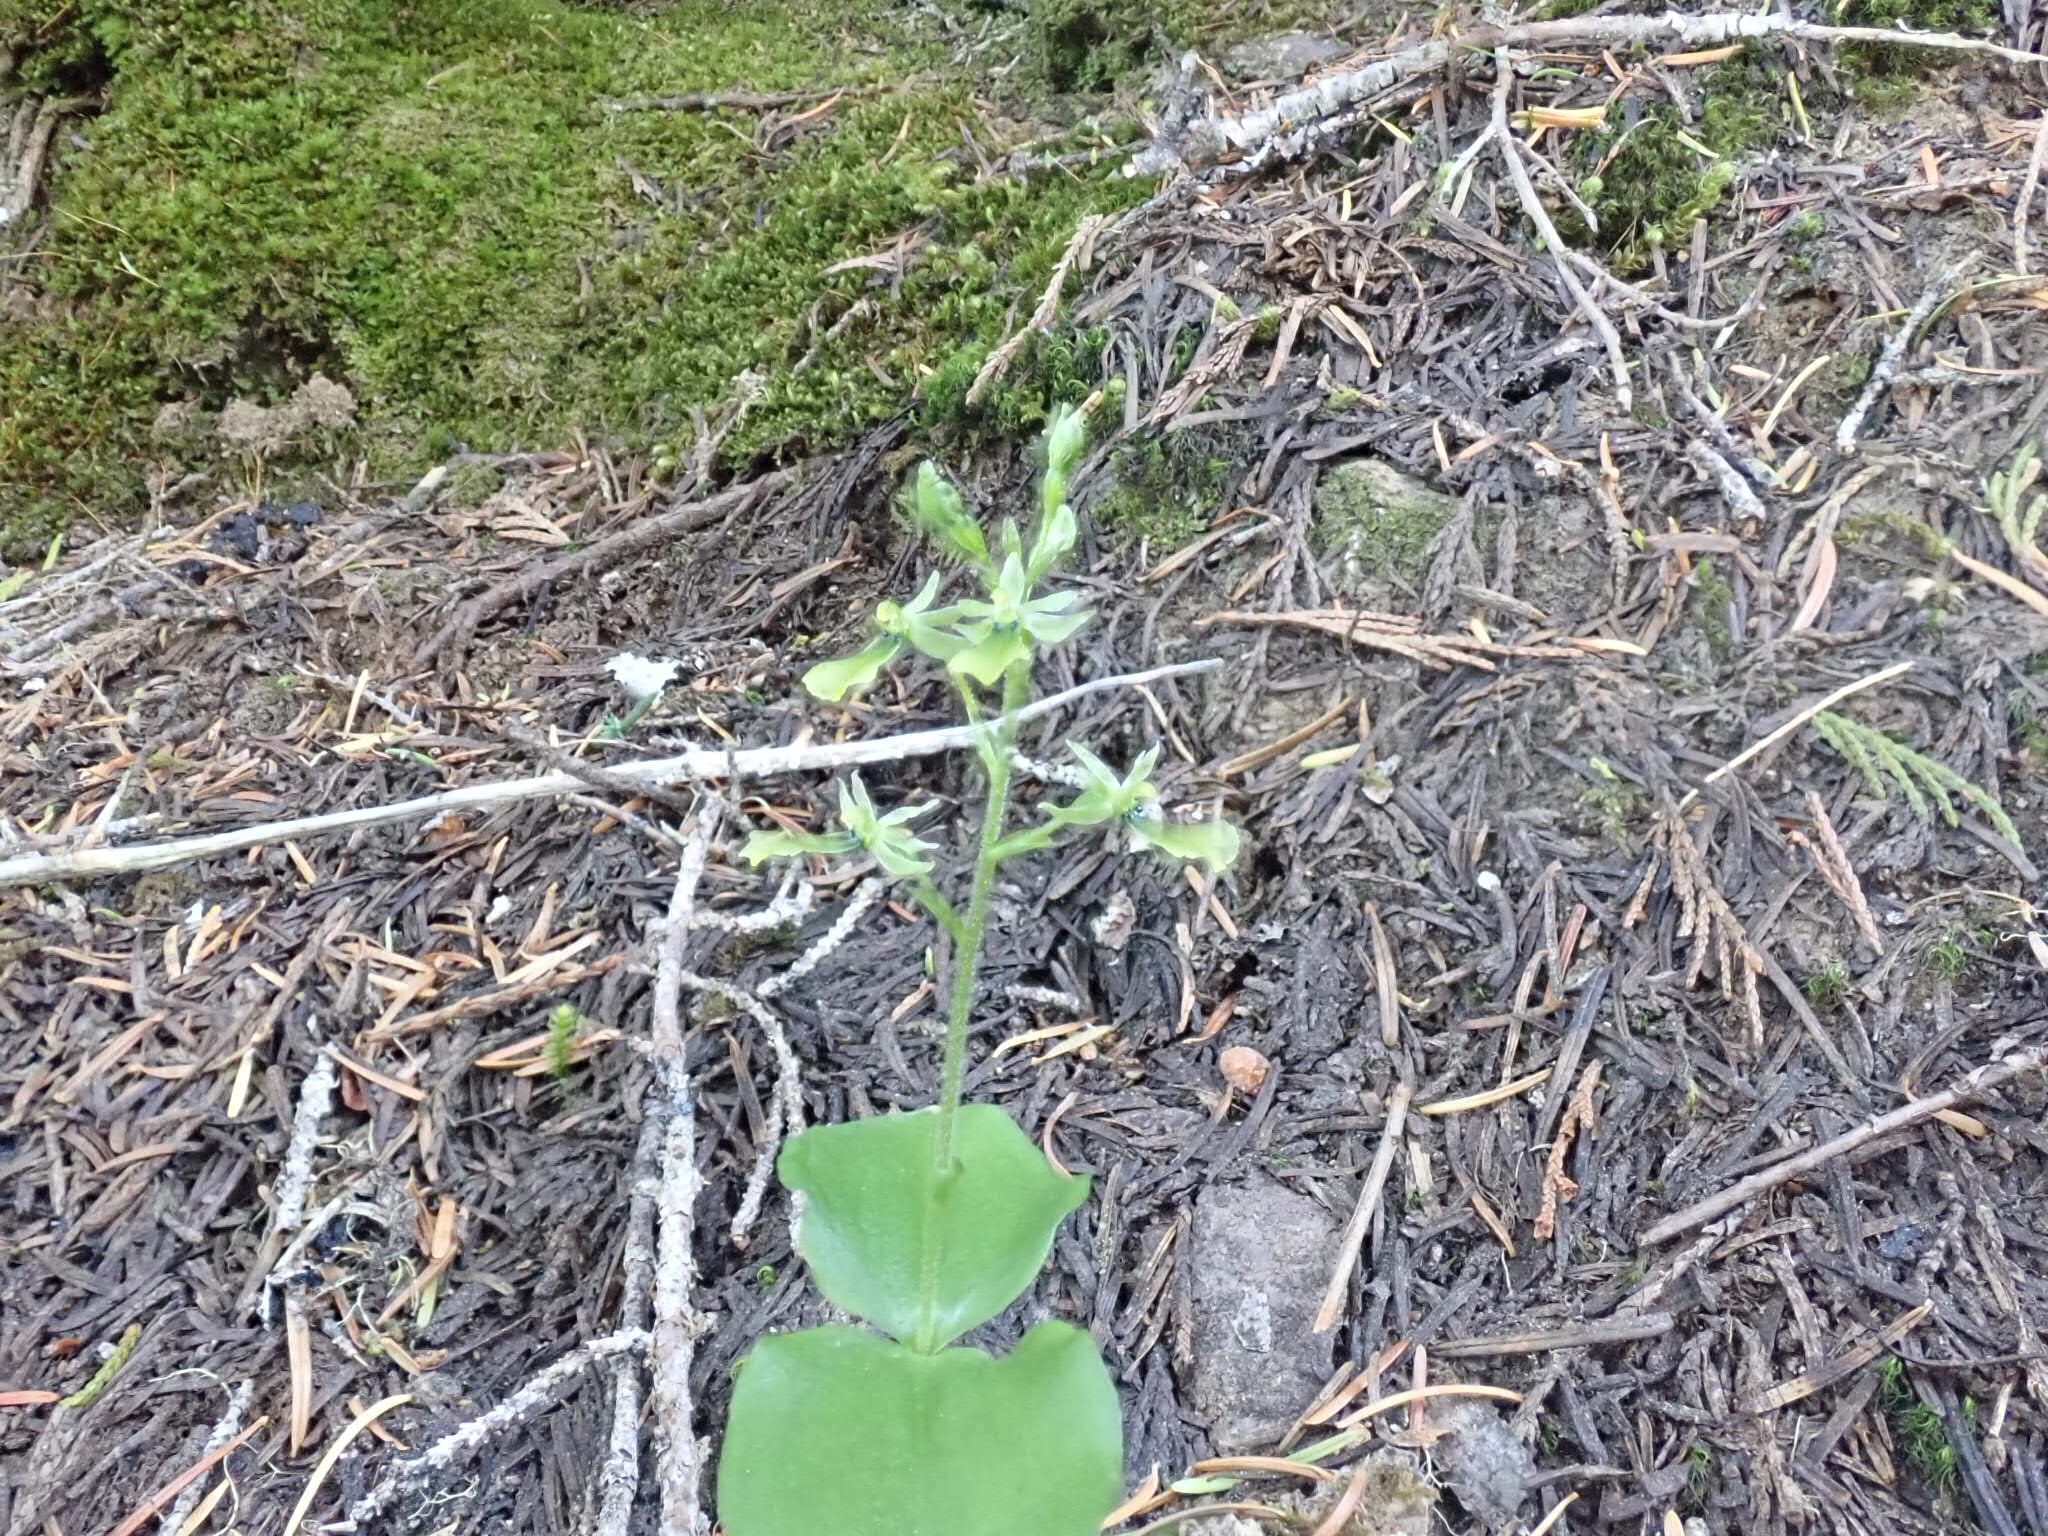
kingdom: Plantae
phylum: Tracheophyta
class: Liliopsida
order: Asparagales
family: Orchidaceae
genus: Neottia
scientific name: Neottia banksiana
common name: Northwestern twayblade
